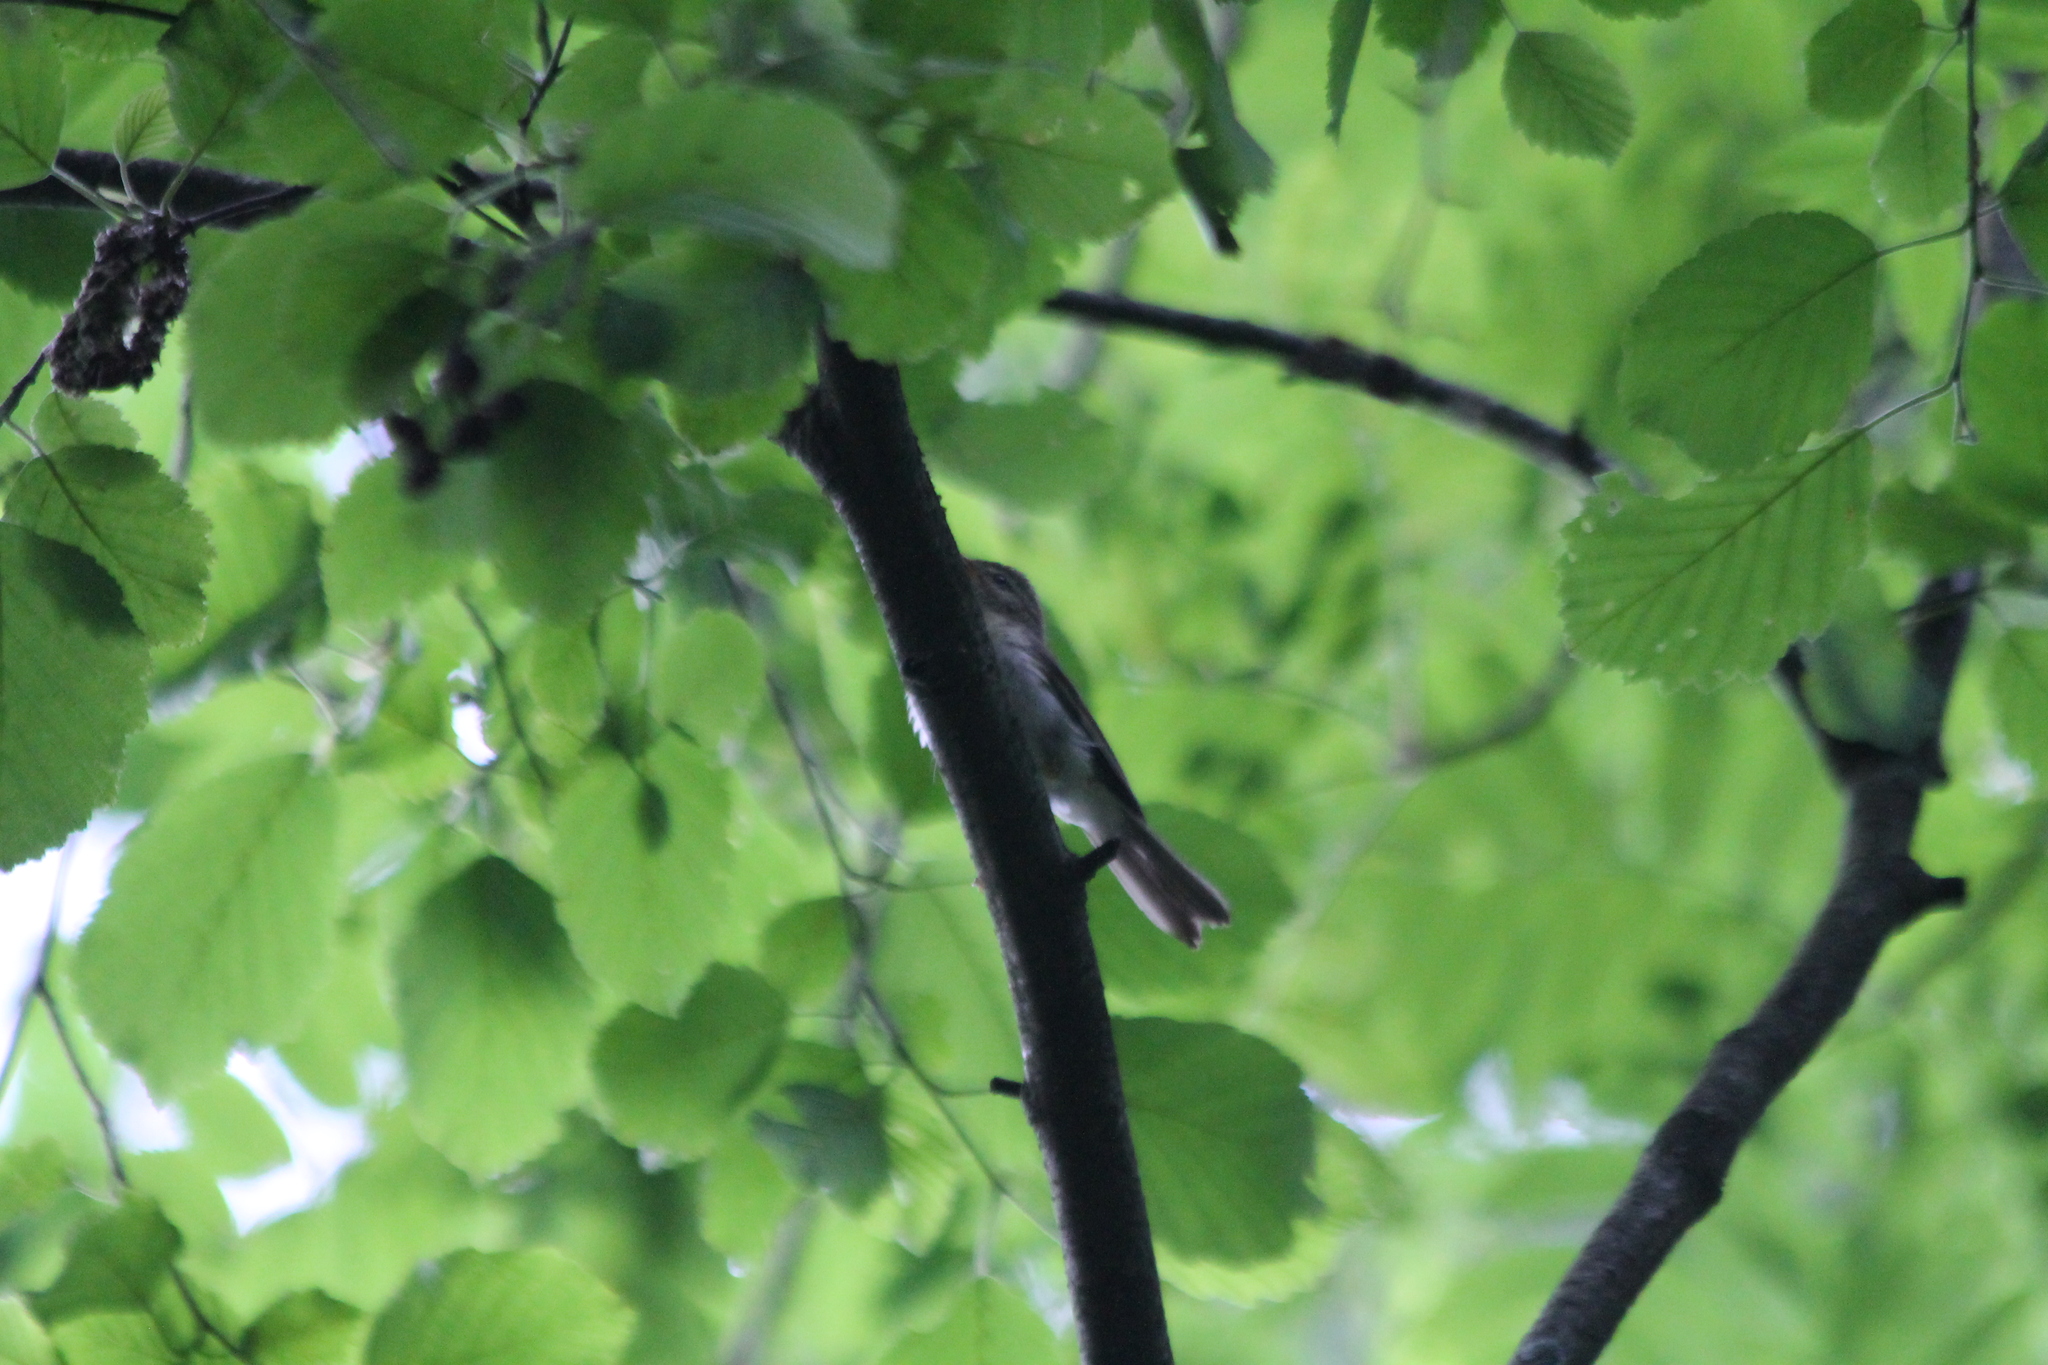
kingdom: Animalia
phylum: Chordata
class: Aves
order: Passeriformes
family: Phylloscopidae
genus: Phylloscopus
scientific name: Phylloscopus trochilus
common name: Willow warbler
